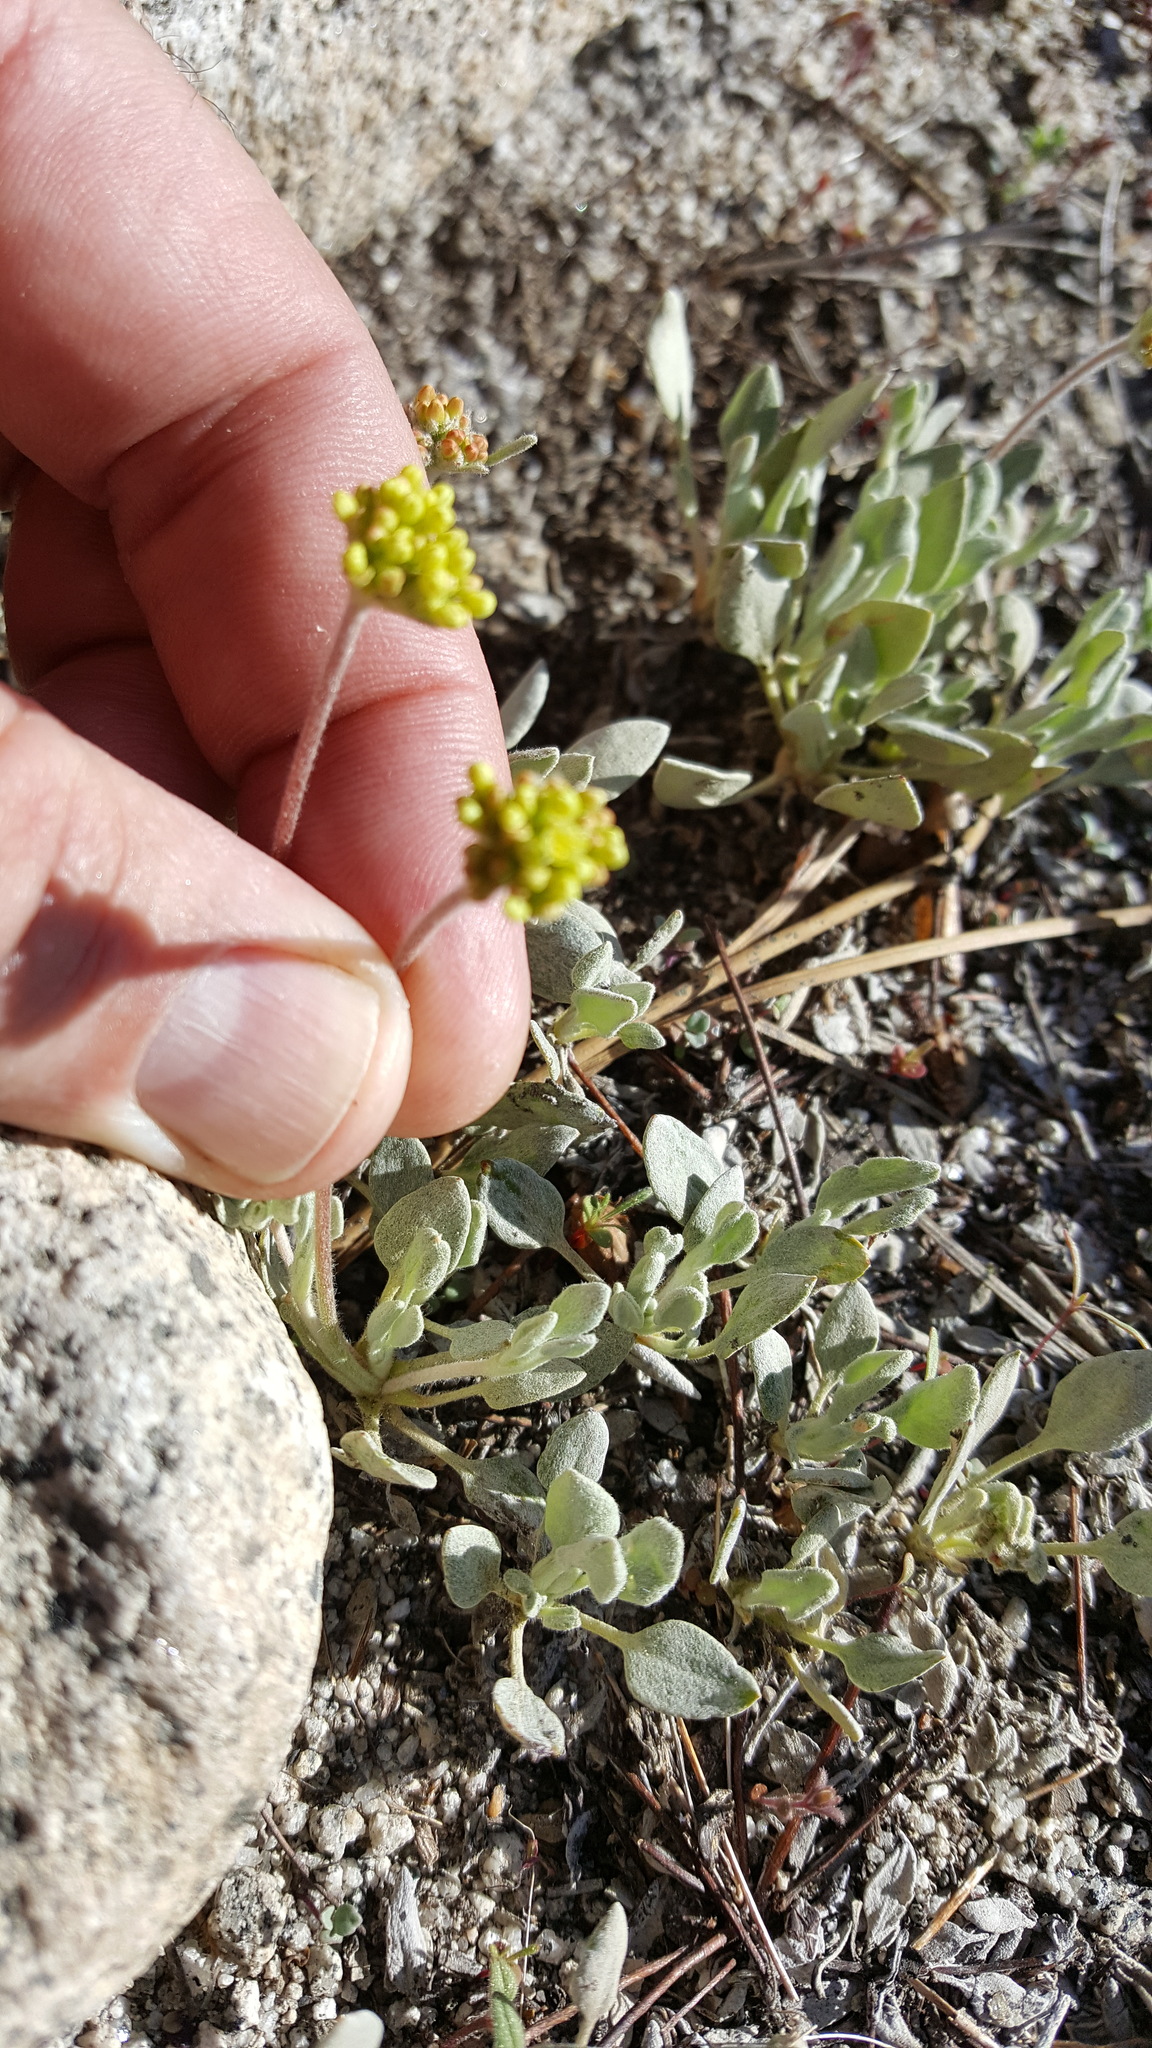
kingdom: Plantae
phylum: Tracheophyta
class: Magnoliopsida
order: Caryophyllales
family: Polygonaceae
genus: Eriogonum
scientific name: Eriogonum incanum
